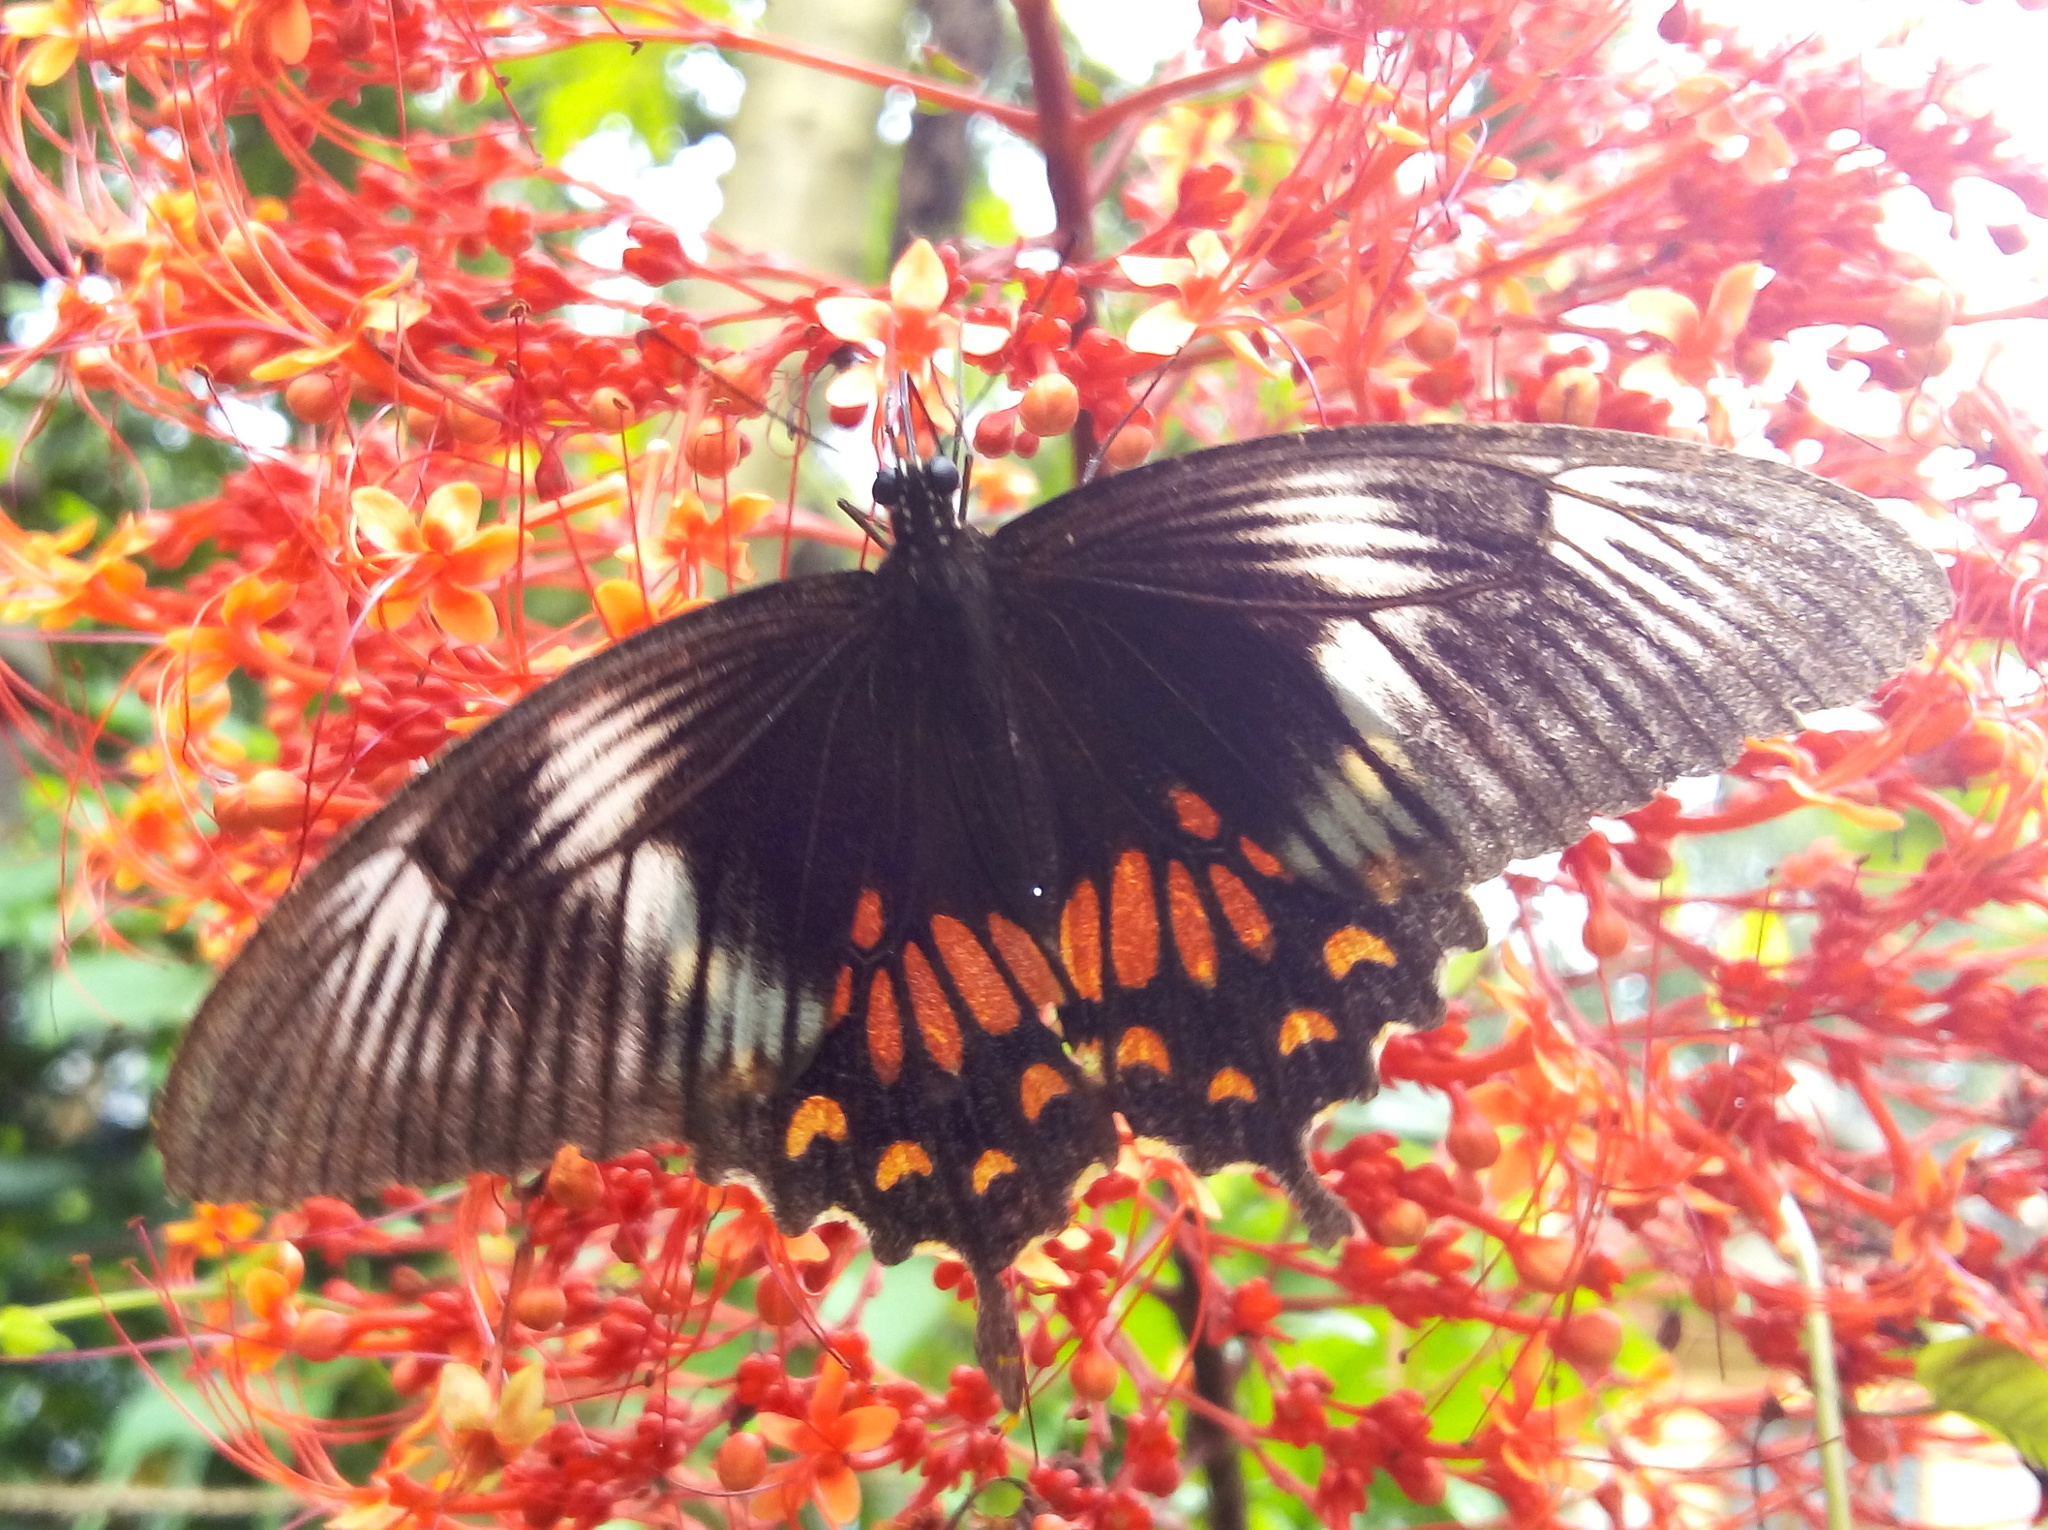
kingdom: Animalia
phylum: Arthropoda
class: Insecta
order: Lepidoptera
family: Papilionidae
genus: Papilio
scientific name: Papilio polytes
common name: Common mormon
